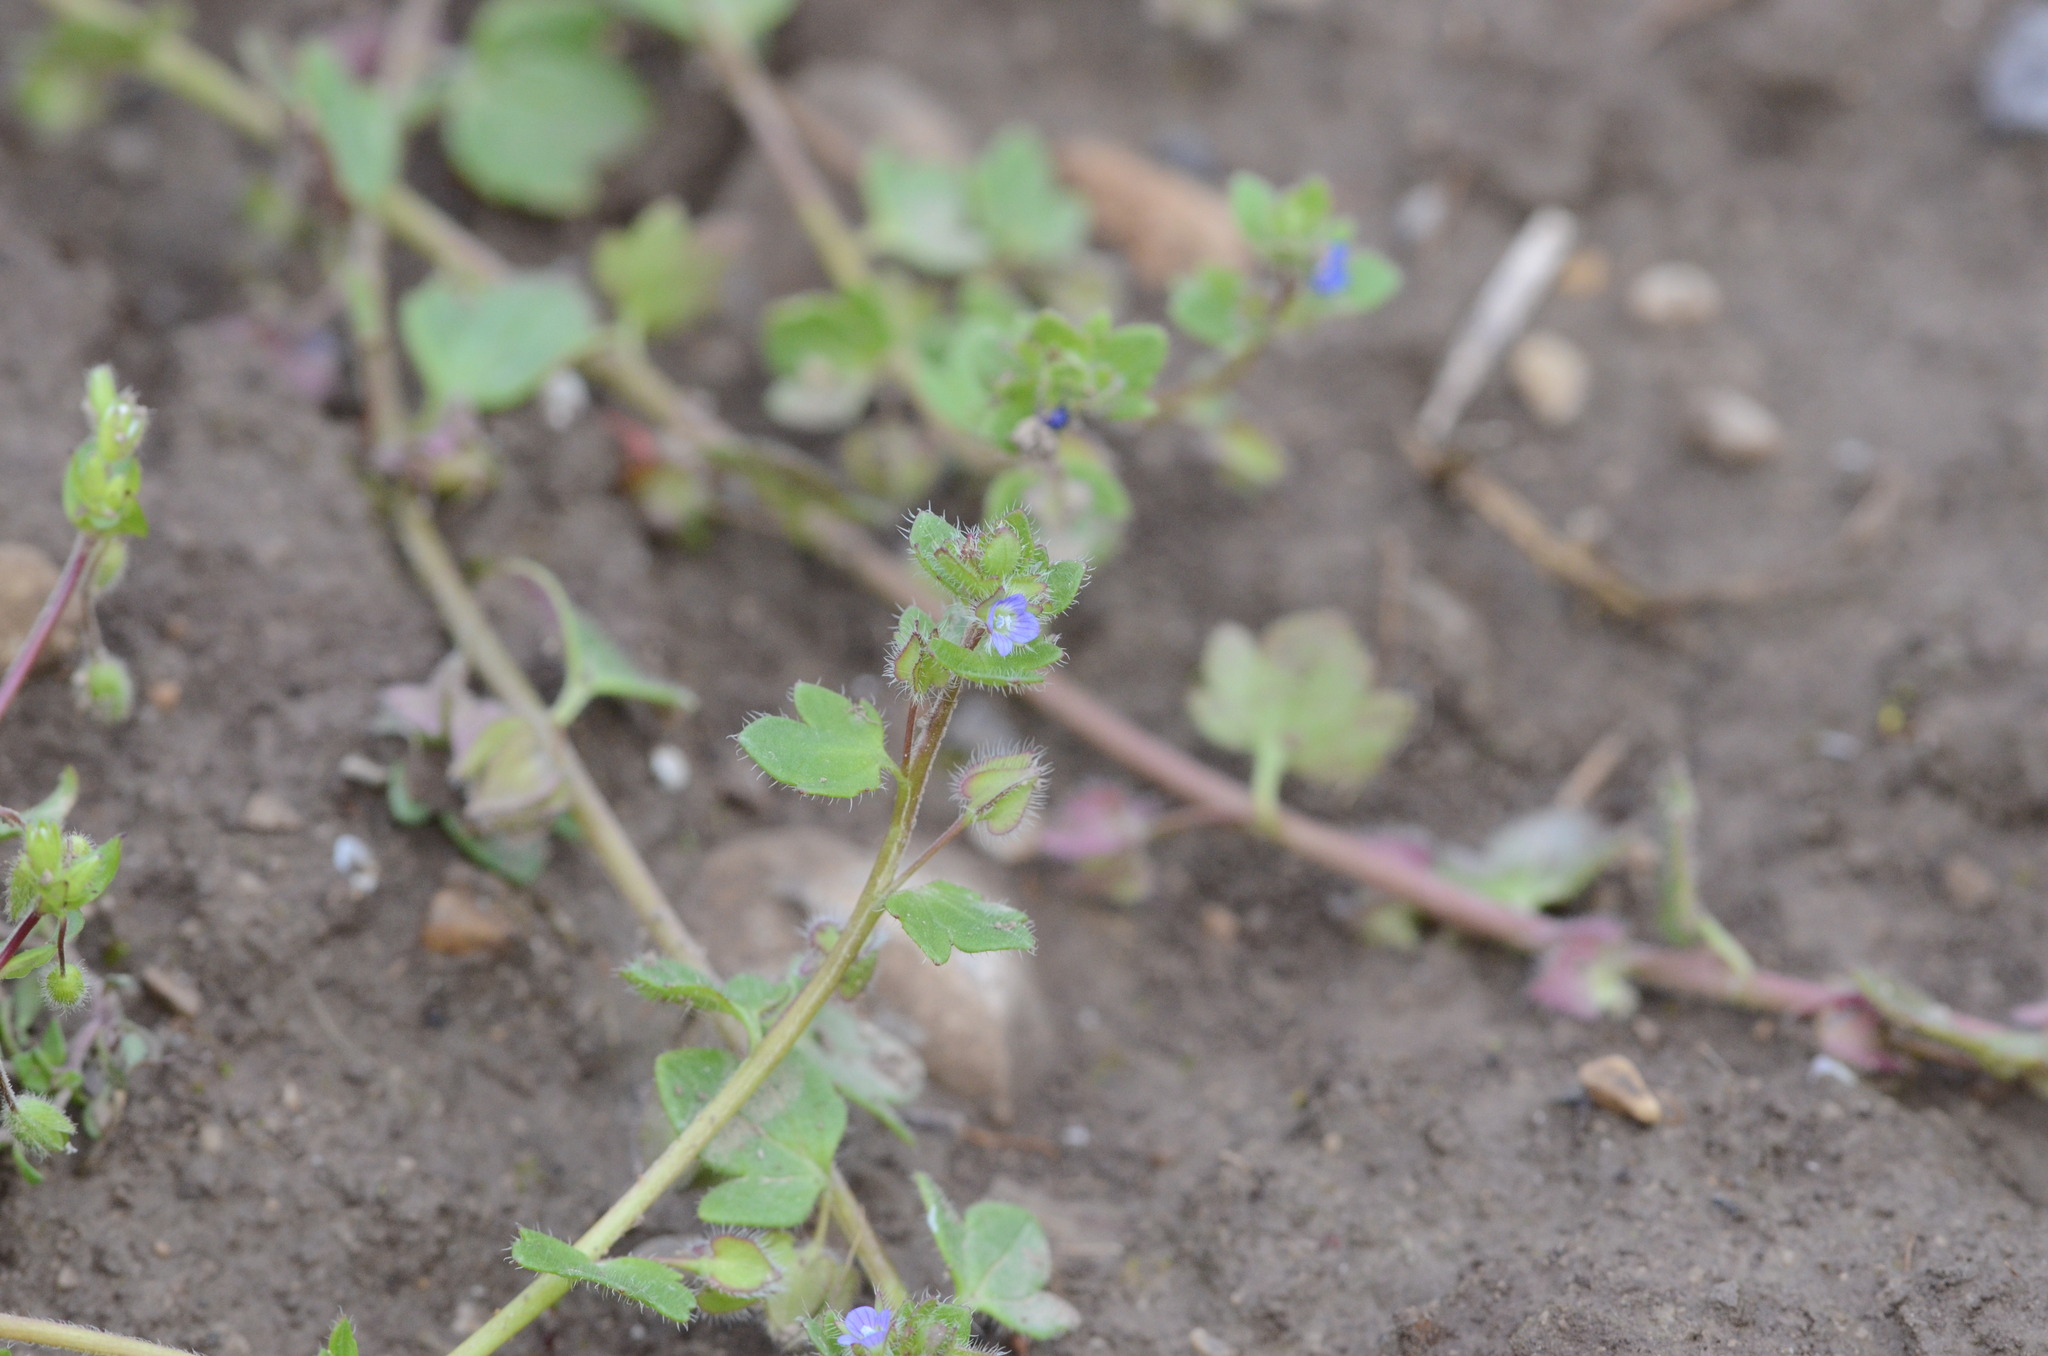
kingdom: Plantae
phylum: Tracheophyta
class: Magnoliopsida
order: Lamiales
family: Plantaginaceae
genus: Veronica
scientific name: Veronica hederifolia
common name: Ivy-leaved speedwell
